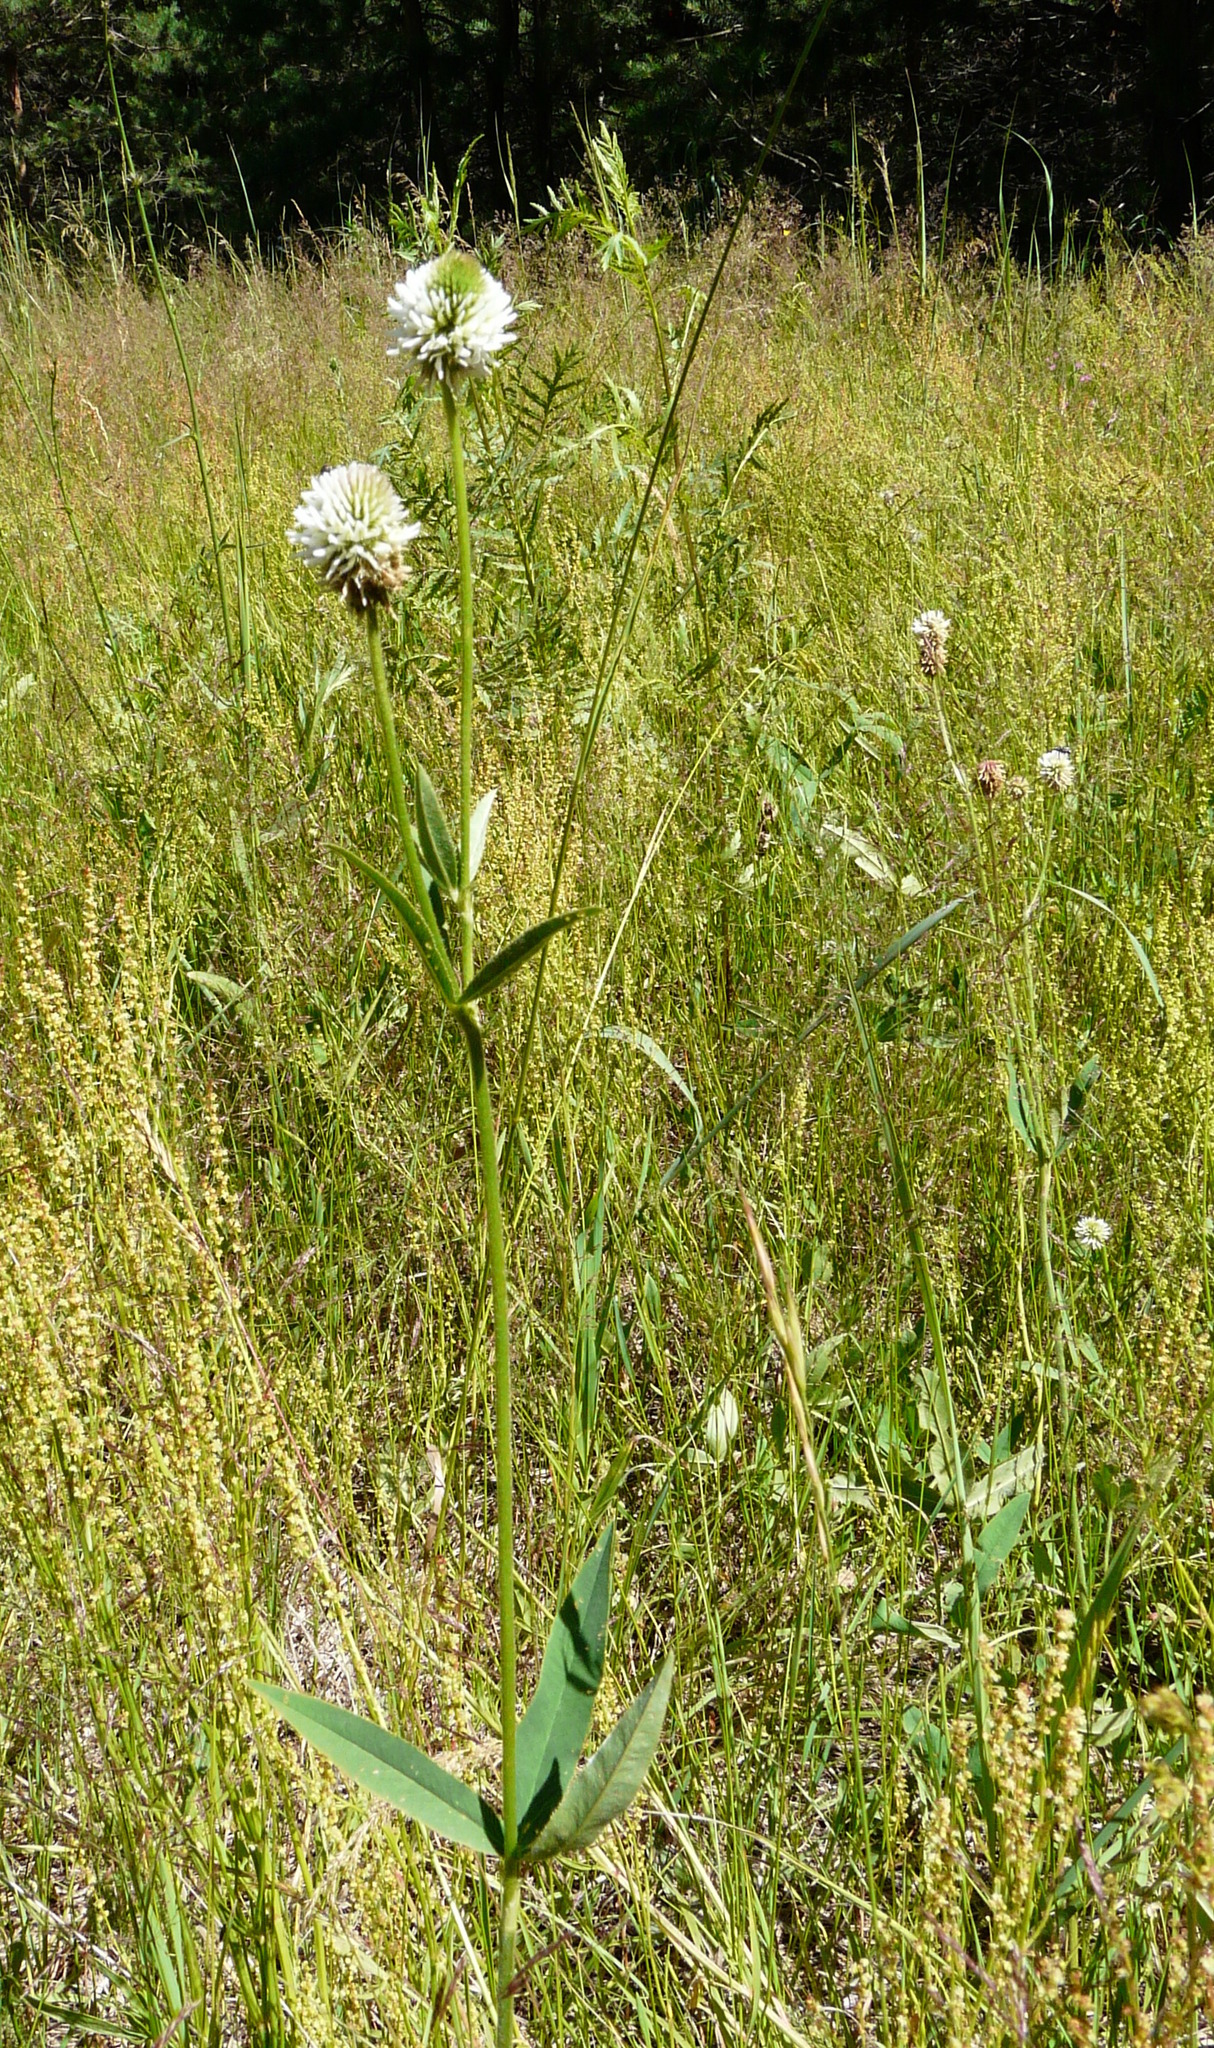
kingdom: Plantae
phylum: Tracheophyta
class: Magnoliopsida
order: Fabales
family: Fabaceae
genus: Trifolium
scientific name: Trifolium montanum
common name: Mountain clover
